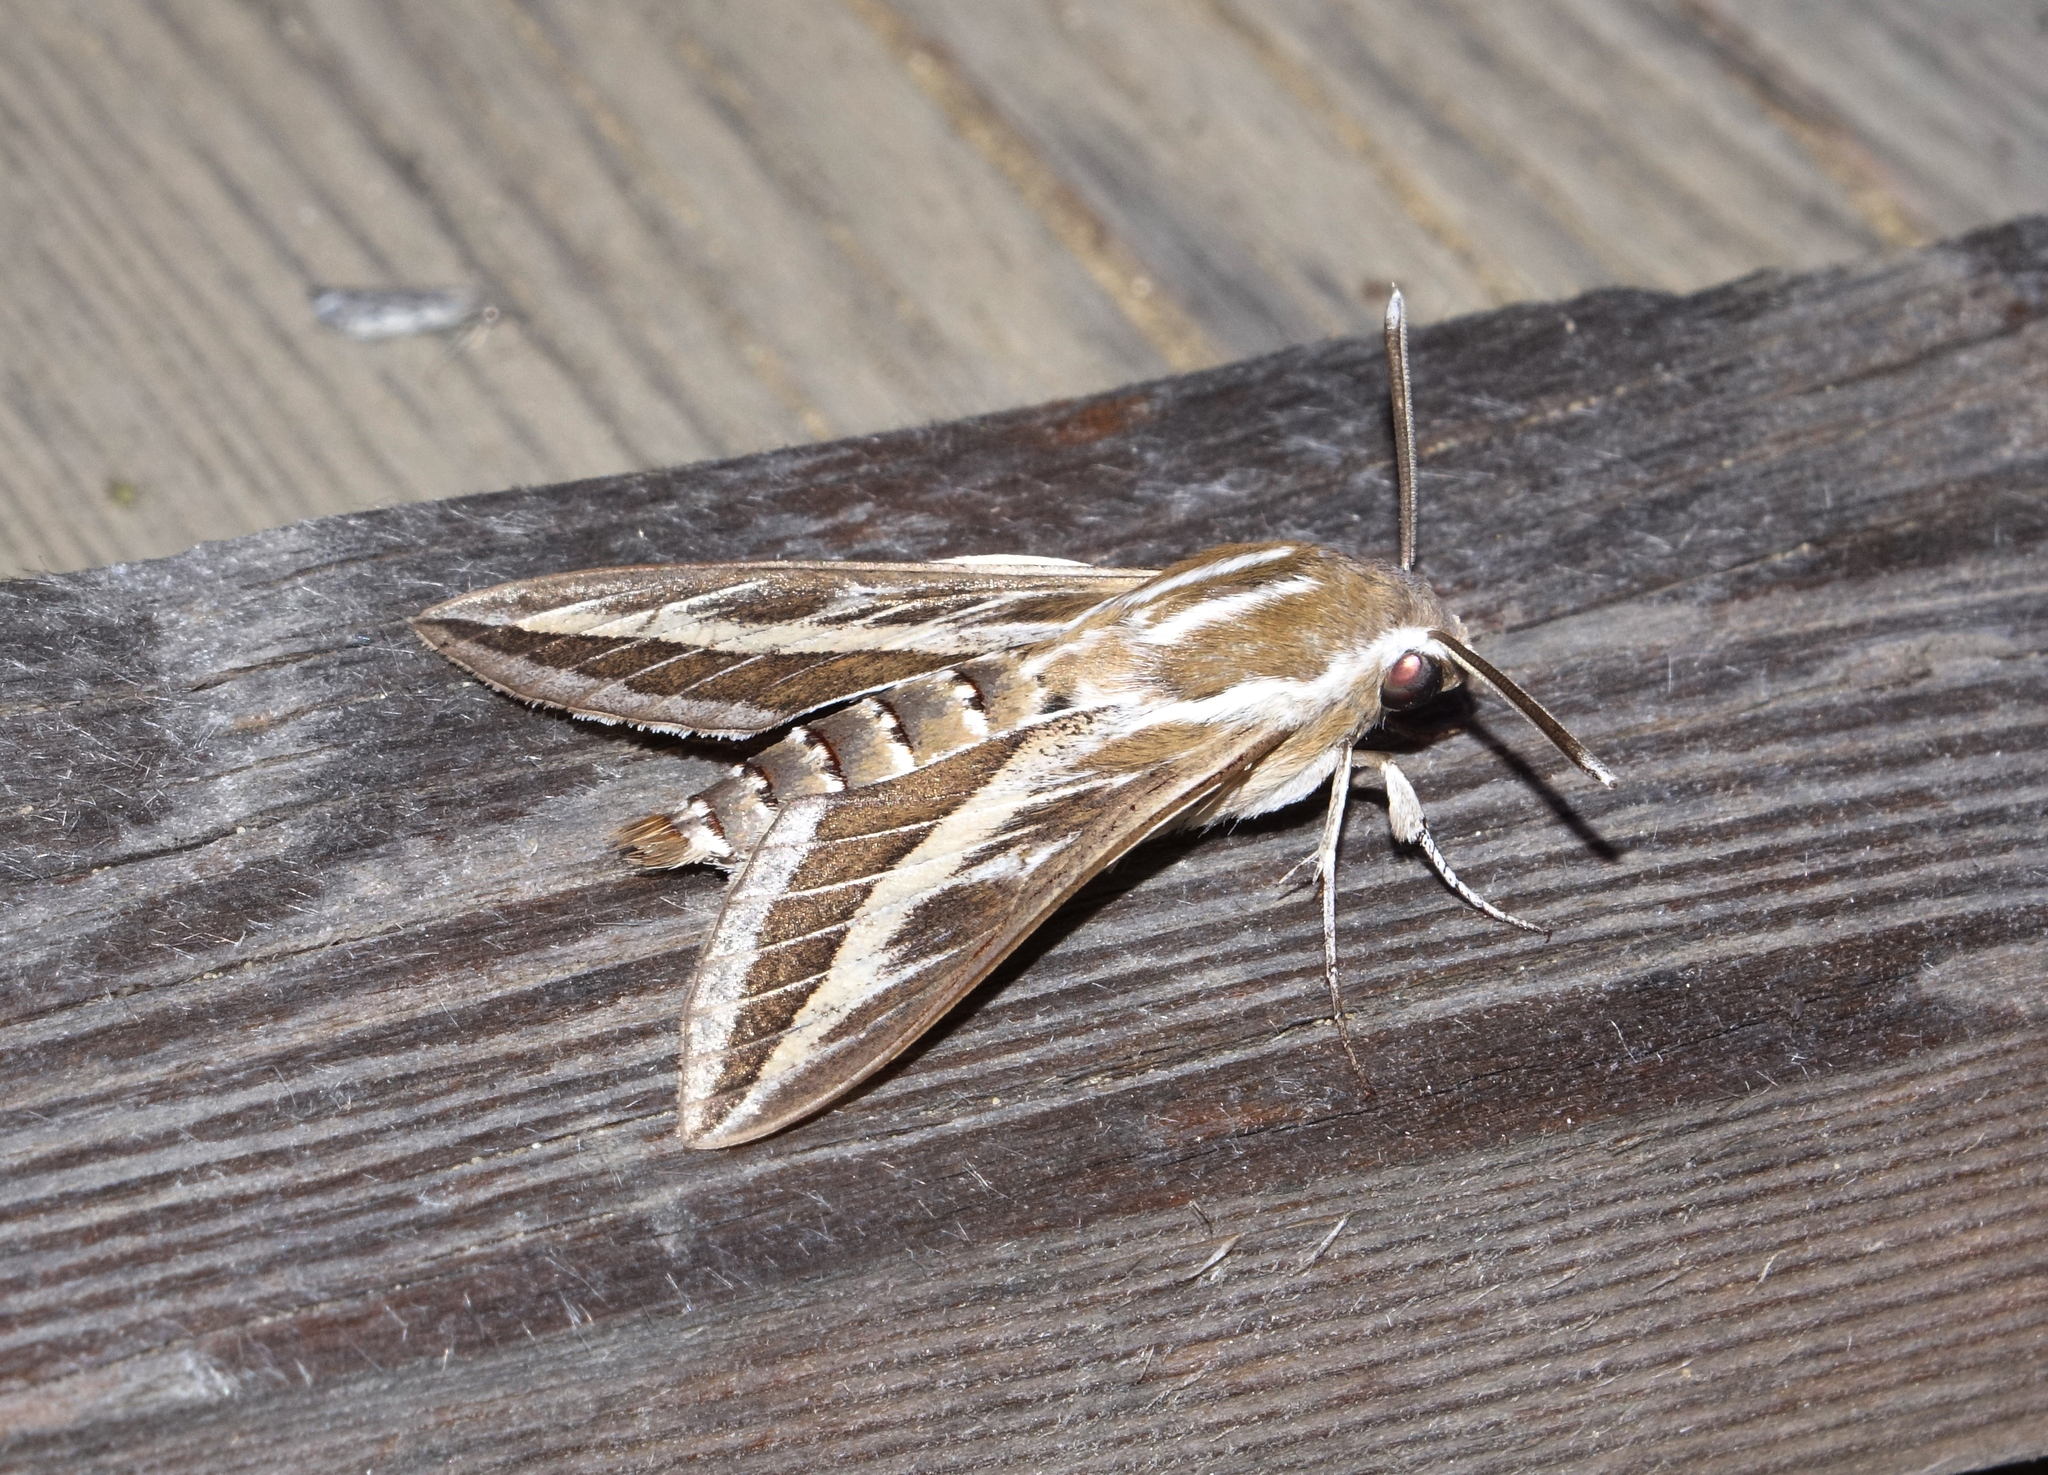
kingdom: Animalia
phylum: Arthropoda
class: Insecta
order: Lepidoptera
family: Sphingidae
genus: Hyles
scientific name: Hyles livornica
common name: Striped hawk-moth
